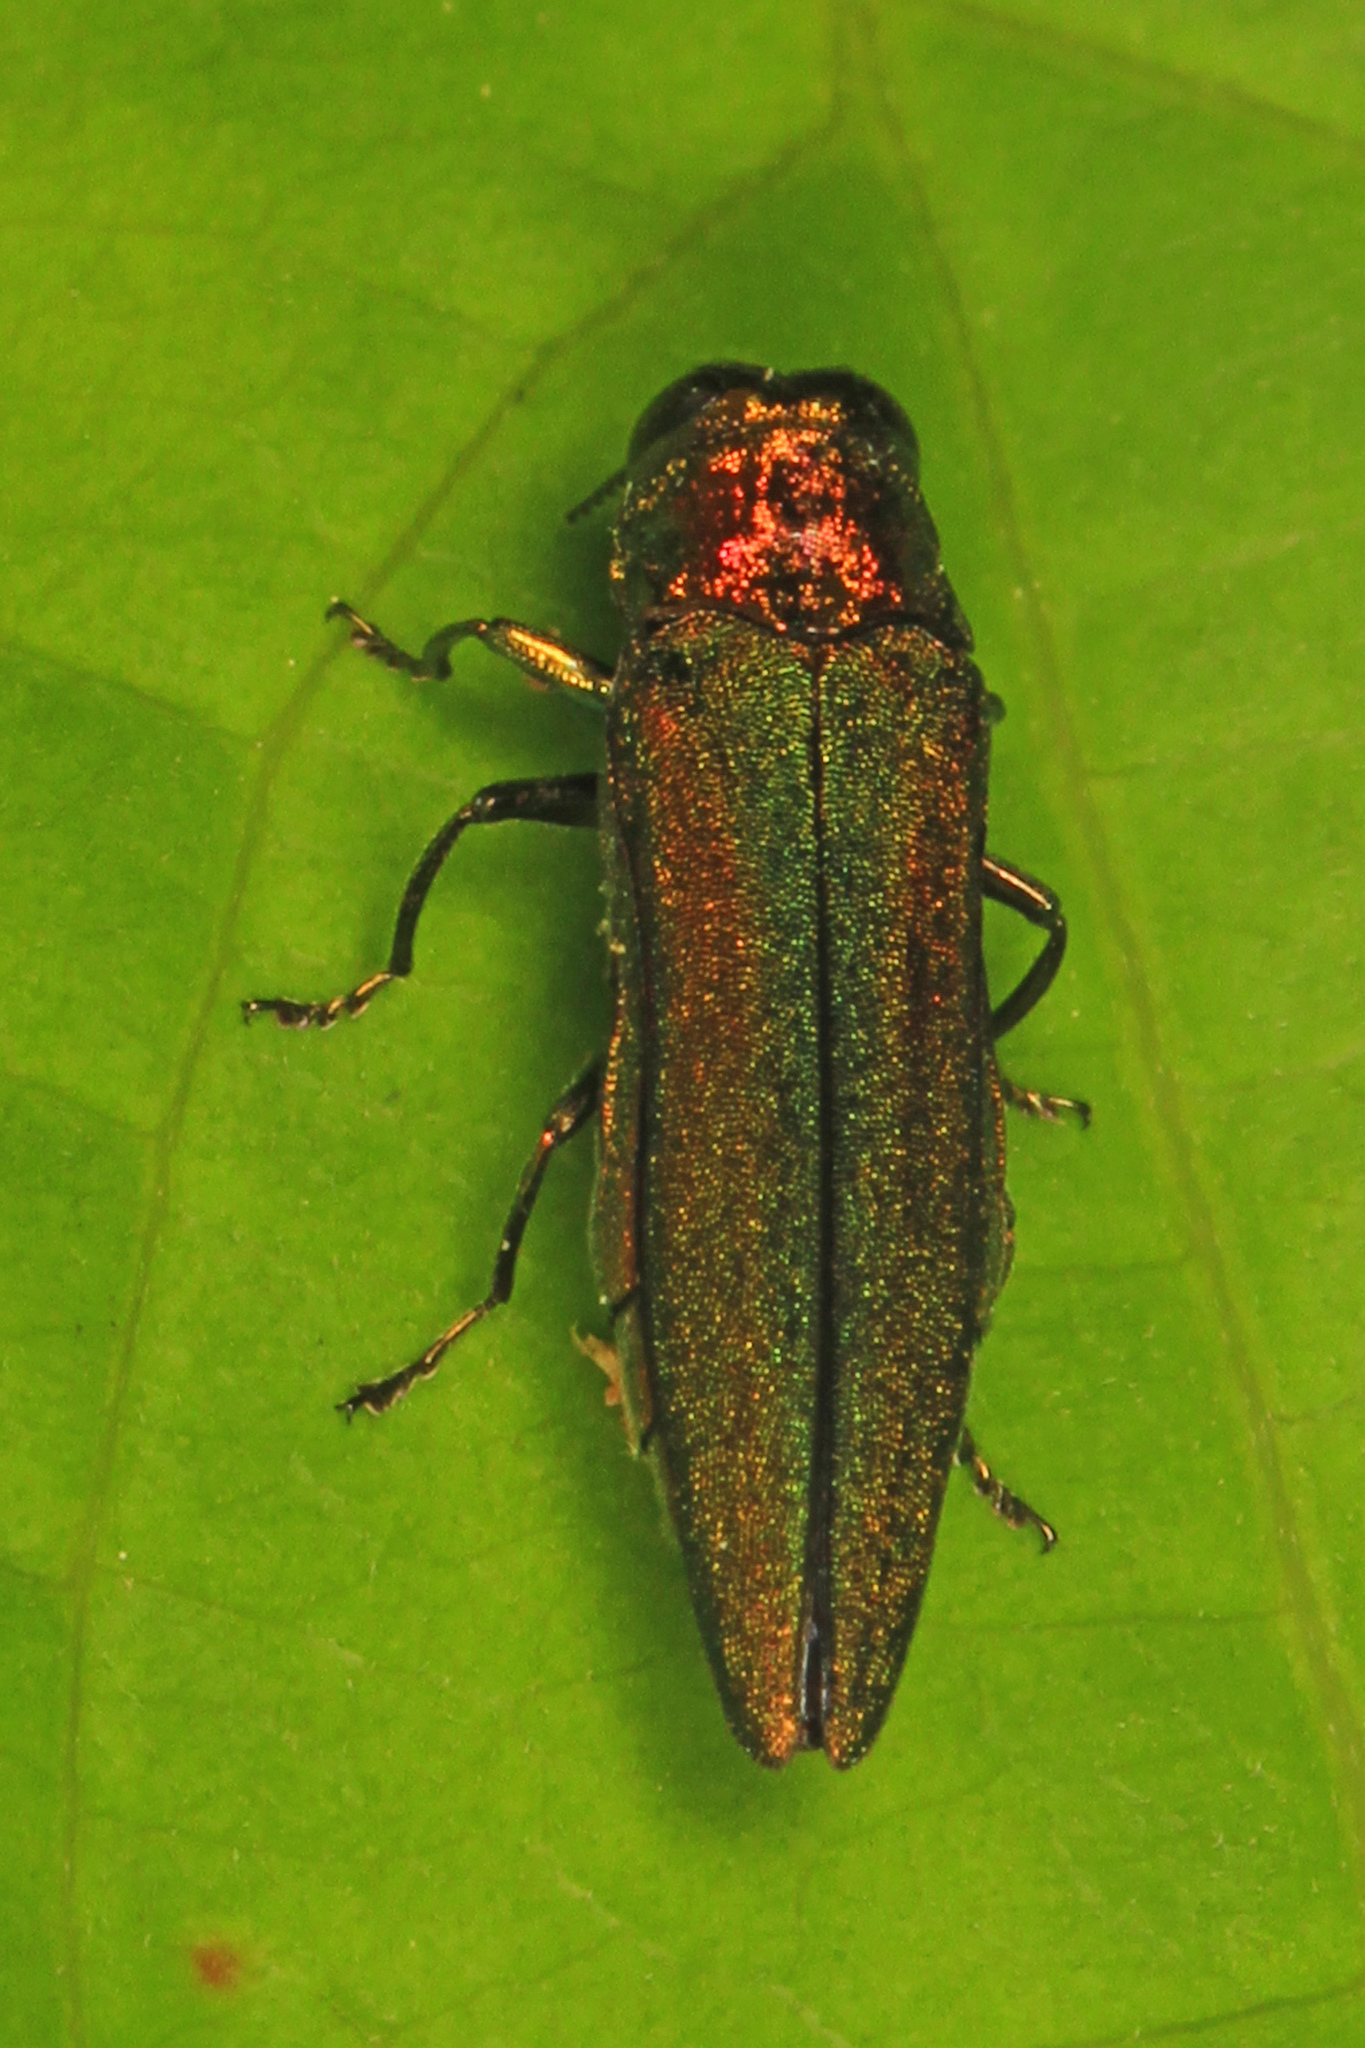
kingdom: Animalia
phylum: Arthropoda
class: Insecta
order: Coleoptera
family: Buprestidae
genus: Agrilus
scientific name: Agrilus planipennis
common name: Emerald ash borer
